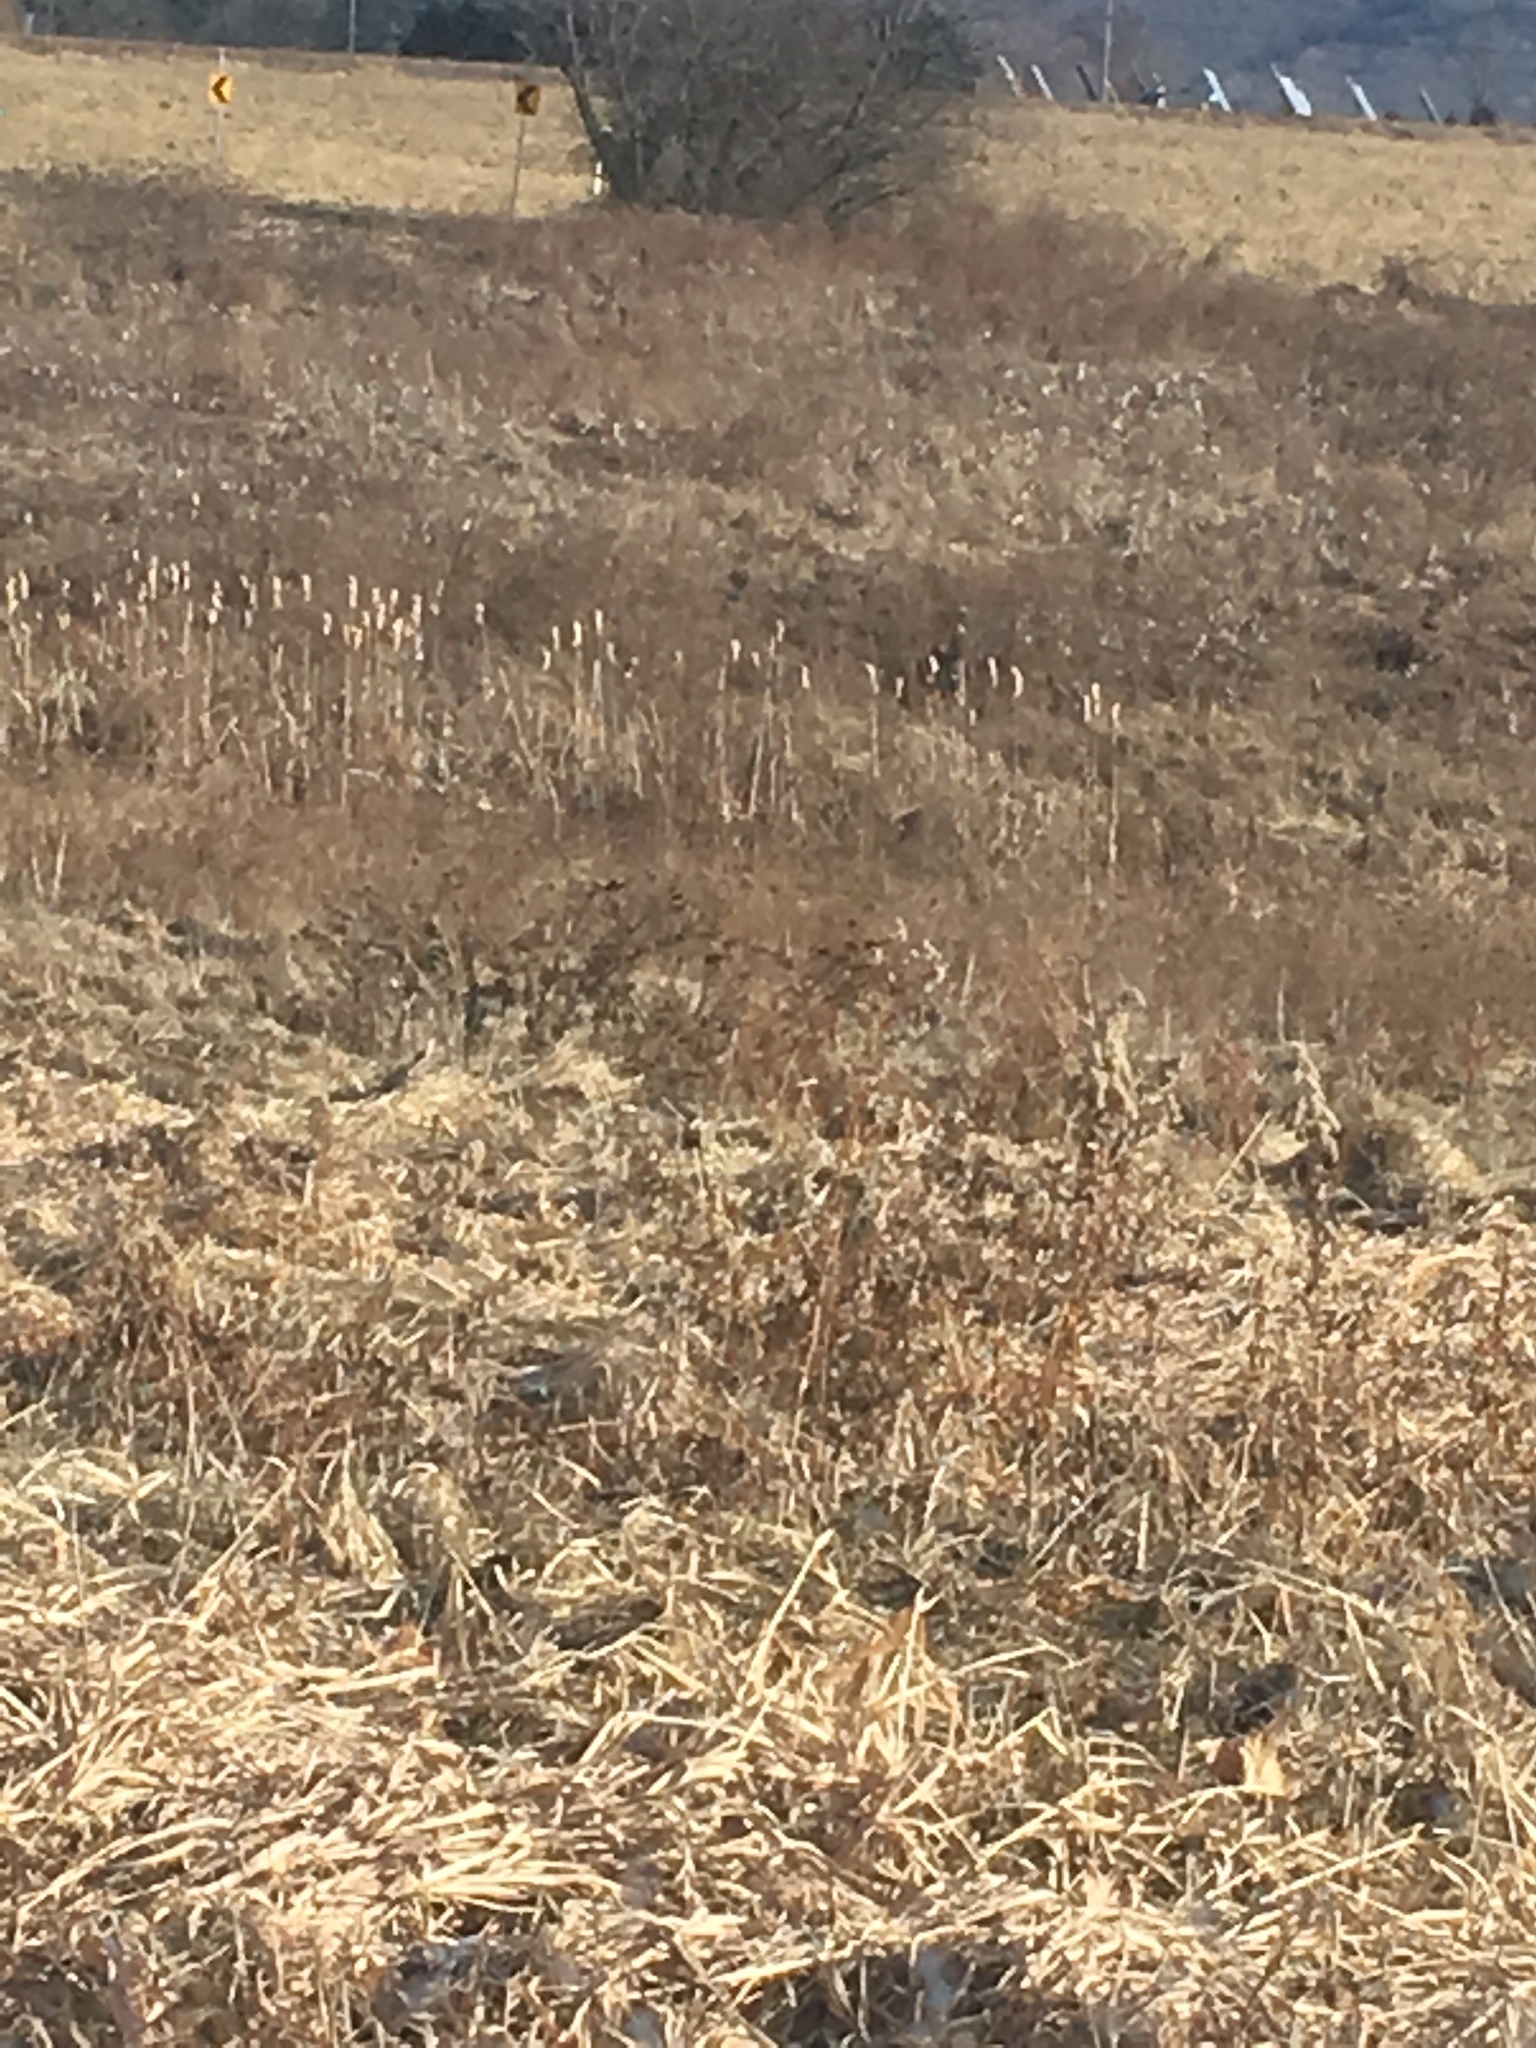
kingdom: Plantae
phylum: Tracheophyta
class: Liliopsida
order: Poales
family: Typhaceae
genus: Typha
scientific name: Typha
